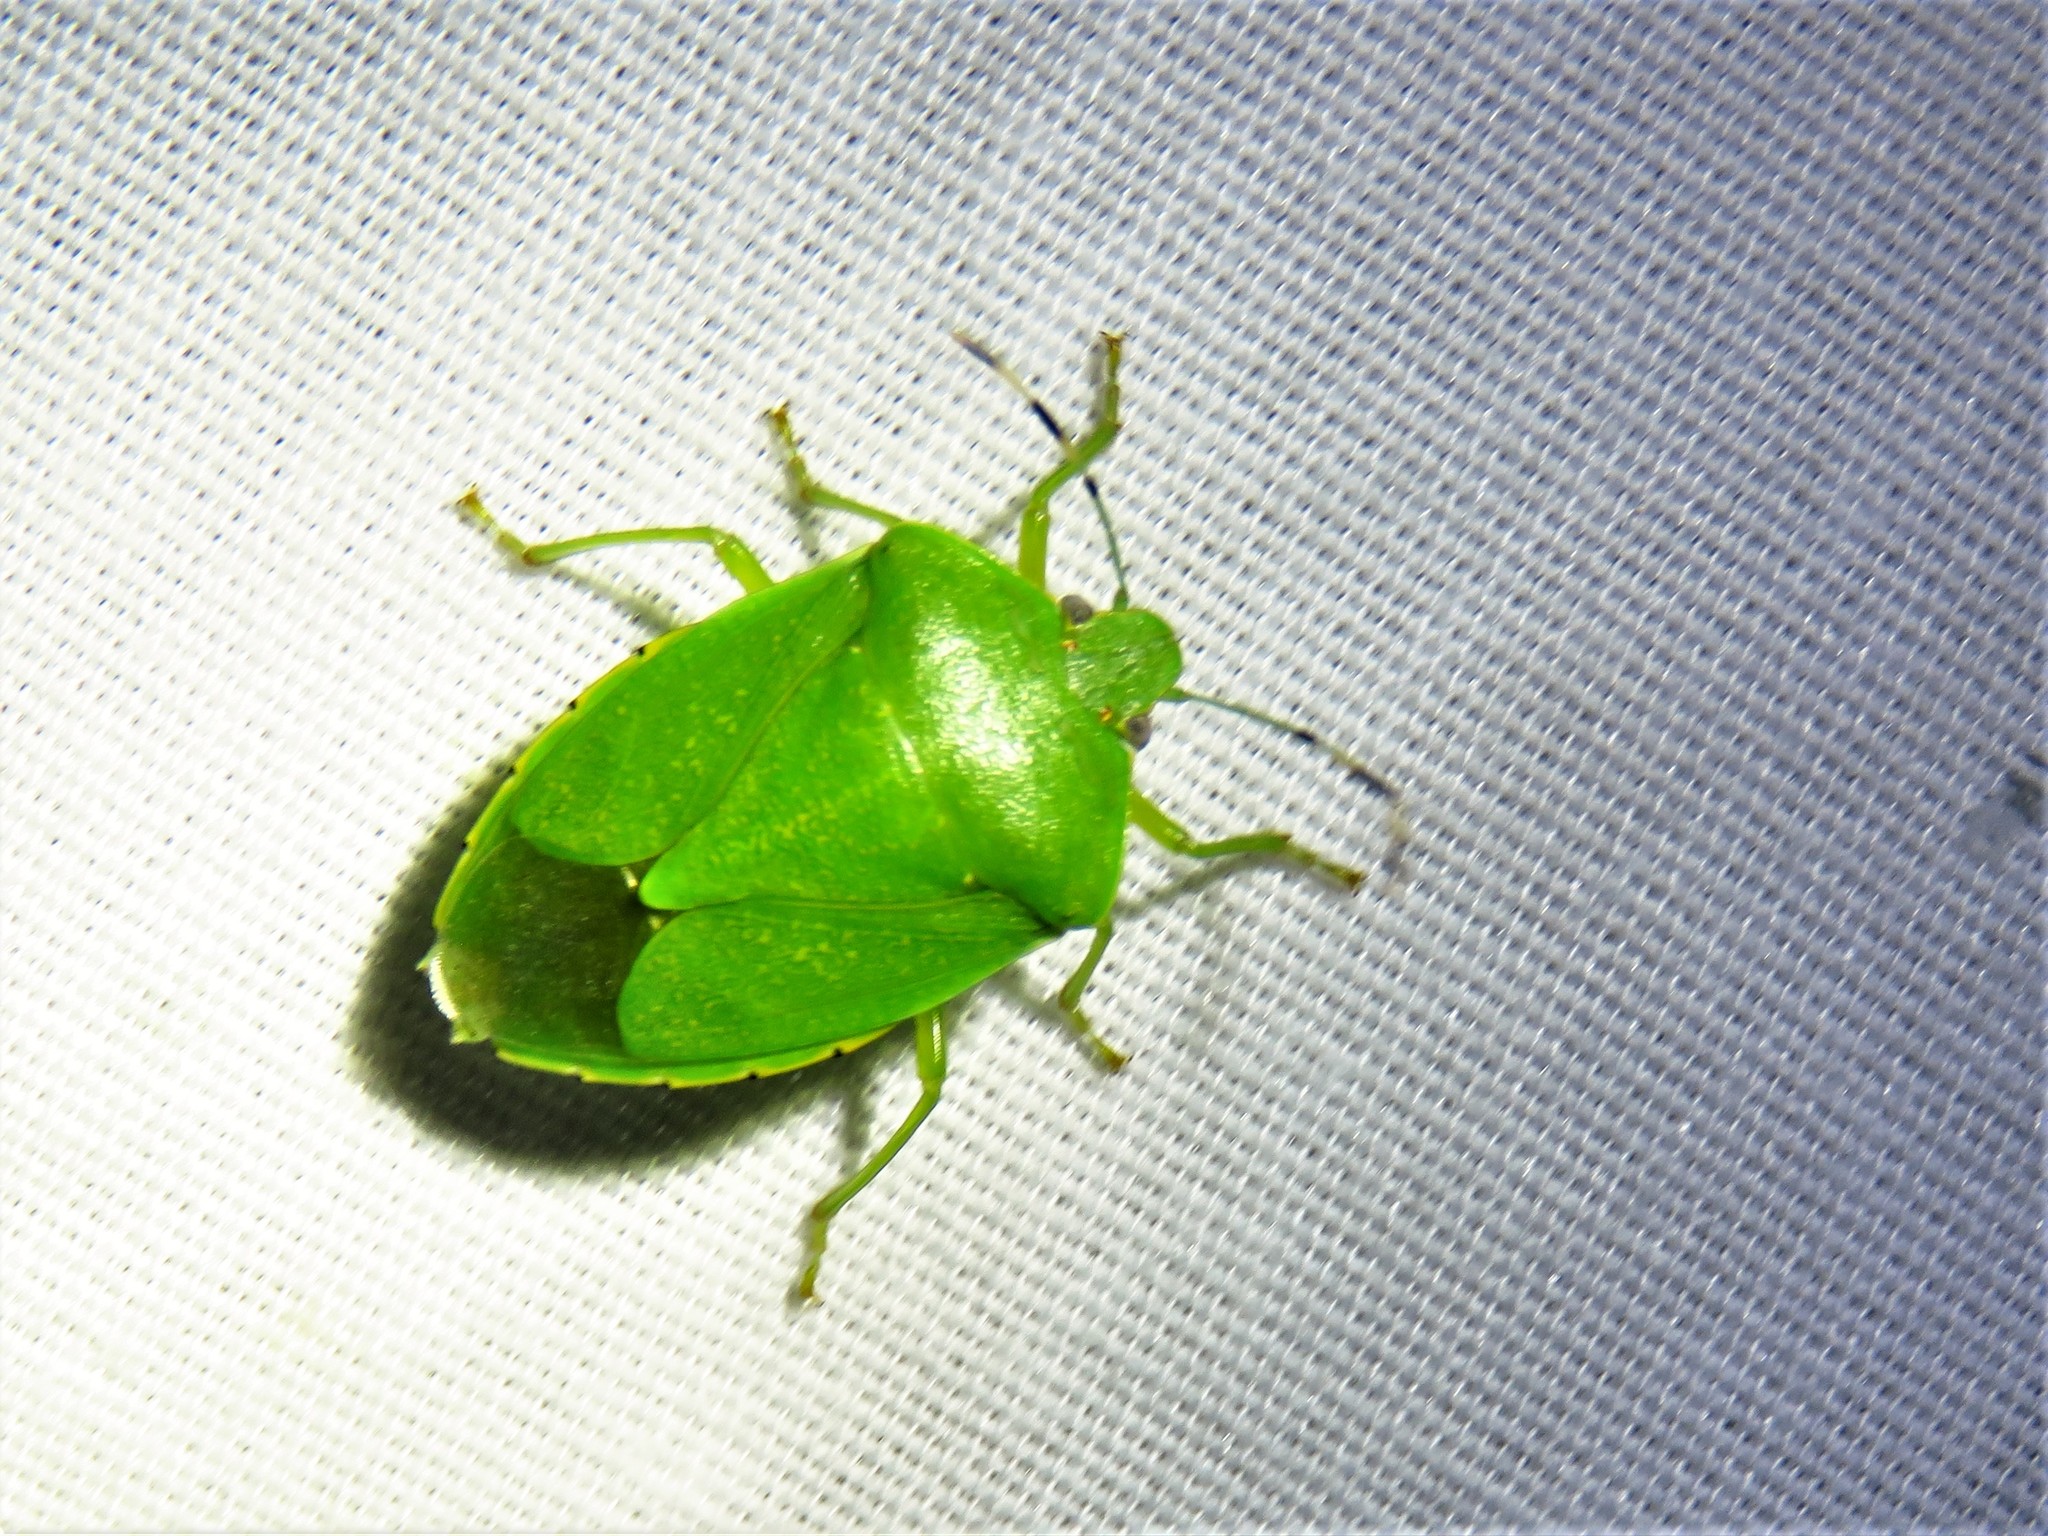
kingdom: Animalia
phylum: Arthropoda
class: Insecta
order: Hemiptera
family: Pentatomidae
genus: Chinavia
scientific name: Chinavia hilaris
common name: Green stink bug
